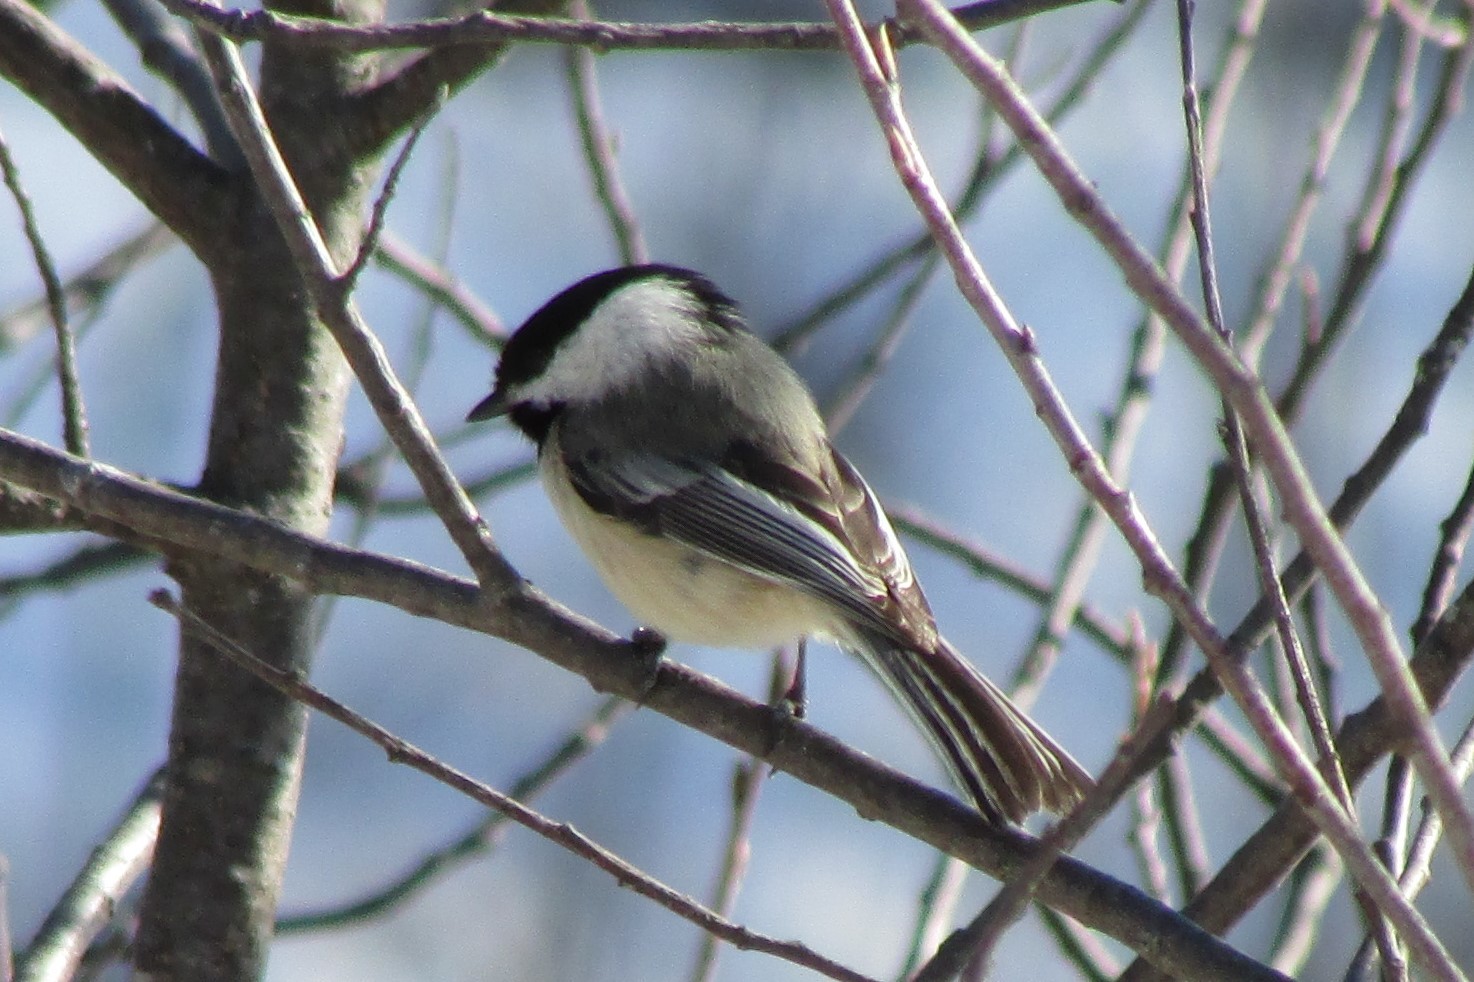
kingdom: Animalia
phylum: Chordata
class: Aves
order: Passeriformes
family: Paridae
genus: Poecile
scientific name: Poecile atricapillus
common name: Black-capped chickadee
